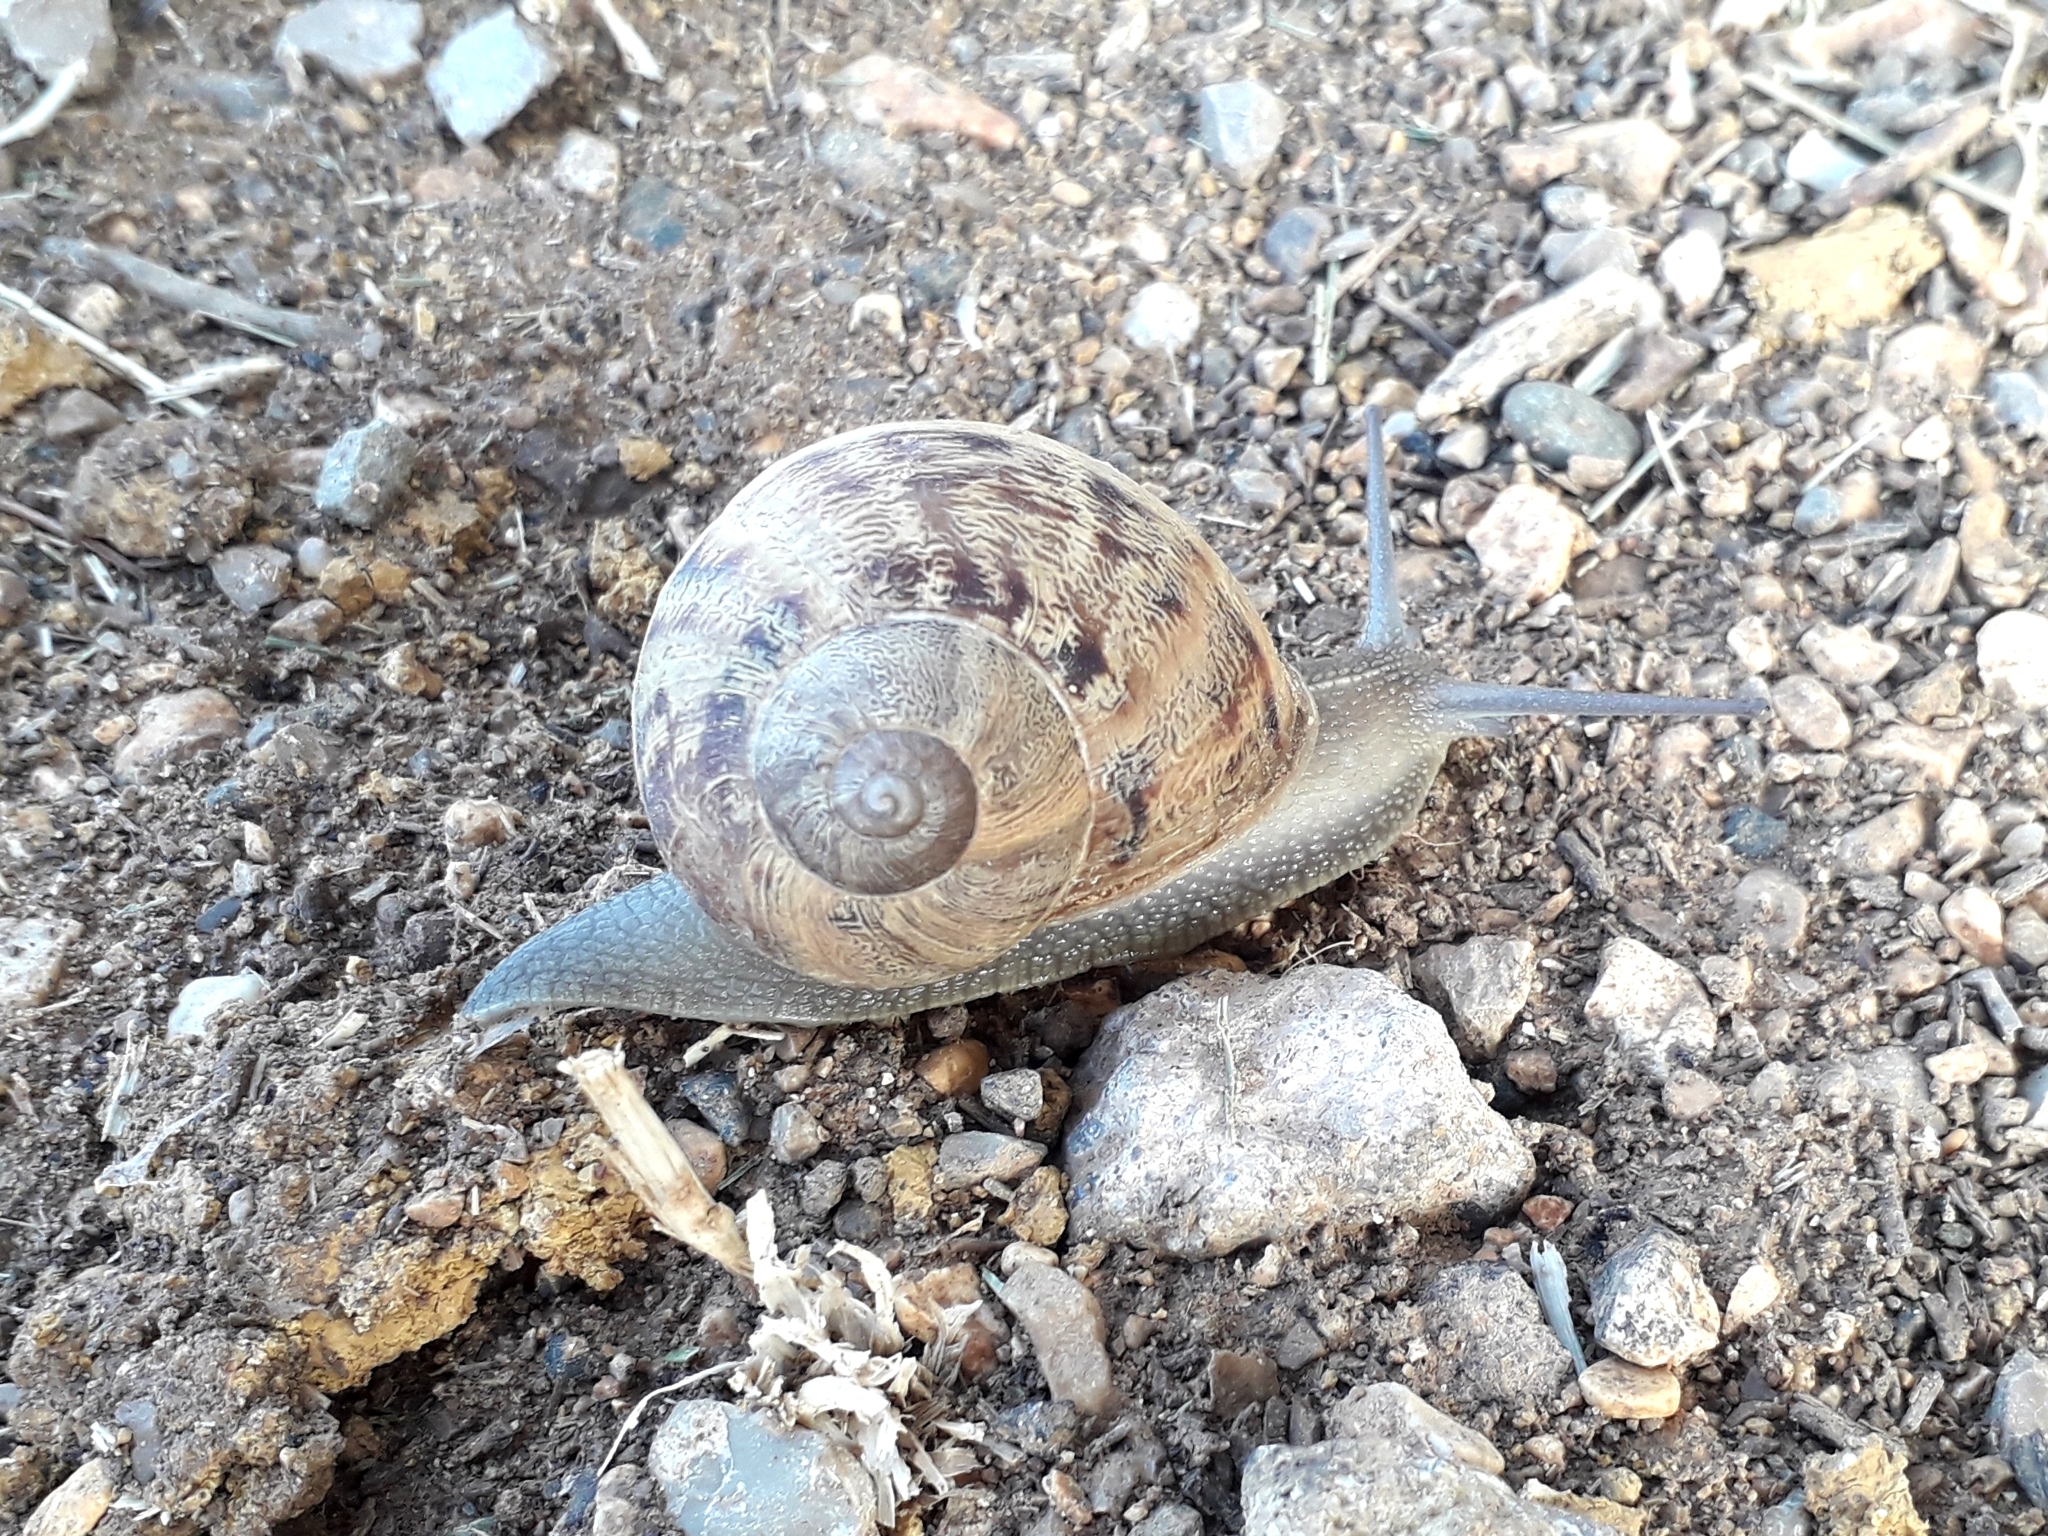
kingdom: Animalia
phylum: Mollusca
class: Gastropoda
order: Stylommatophora
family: Helicidae
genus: Cornu
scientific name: Cornu aspersum
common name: Brown garden snail
